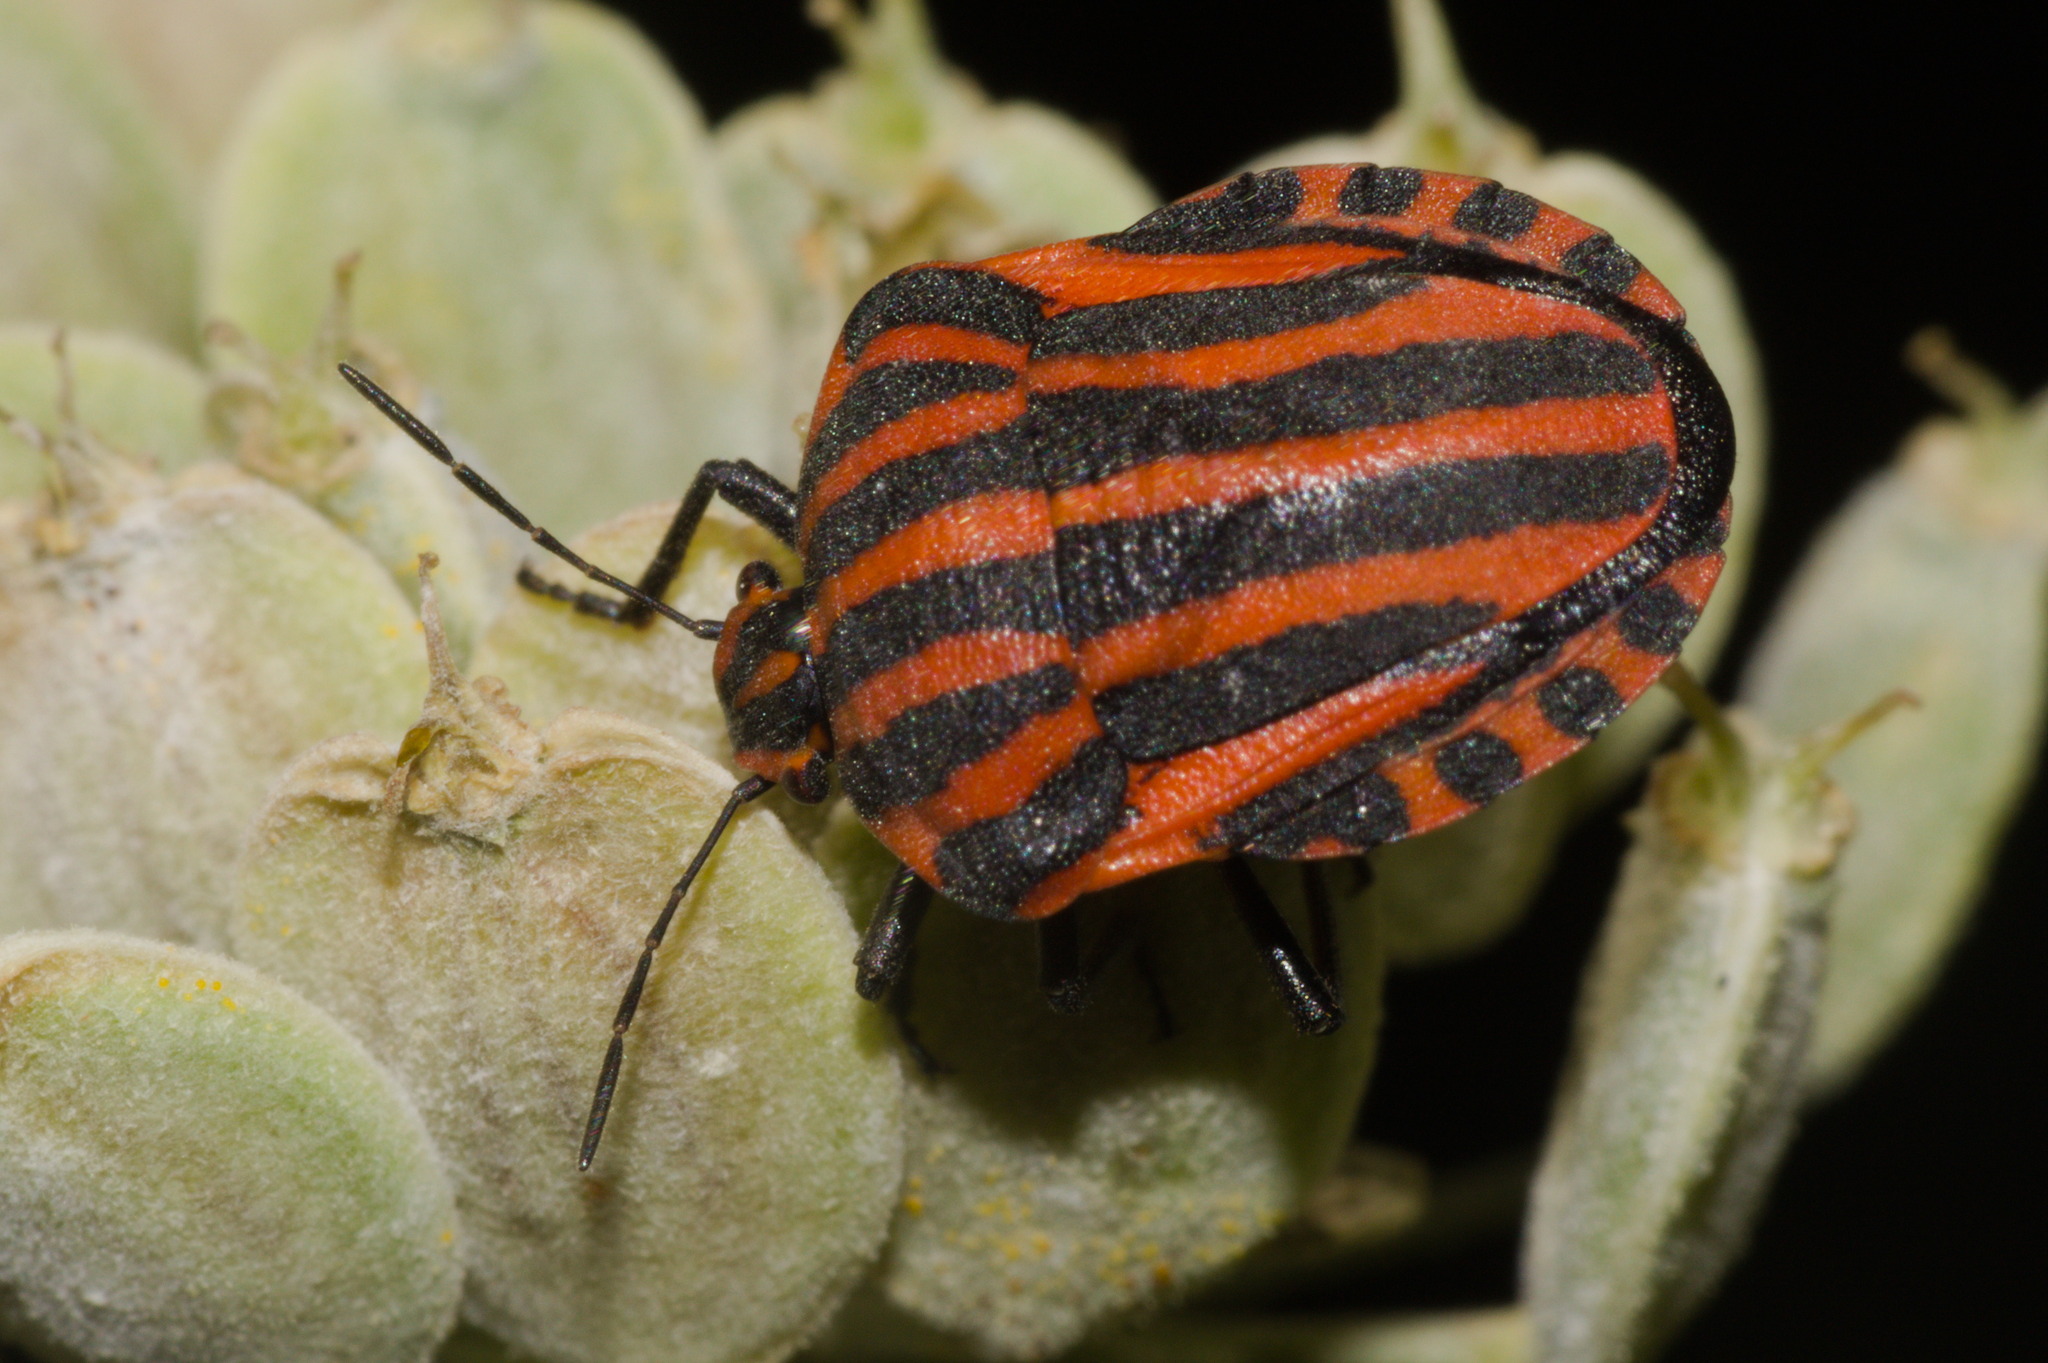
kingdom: Animalia
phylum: Arthropoda
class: Insecta
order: Hemiptera
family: Pentatomidae
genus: Graphosoma
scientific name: Graphosoma italicum
